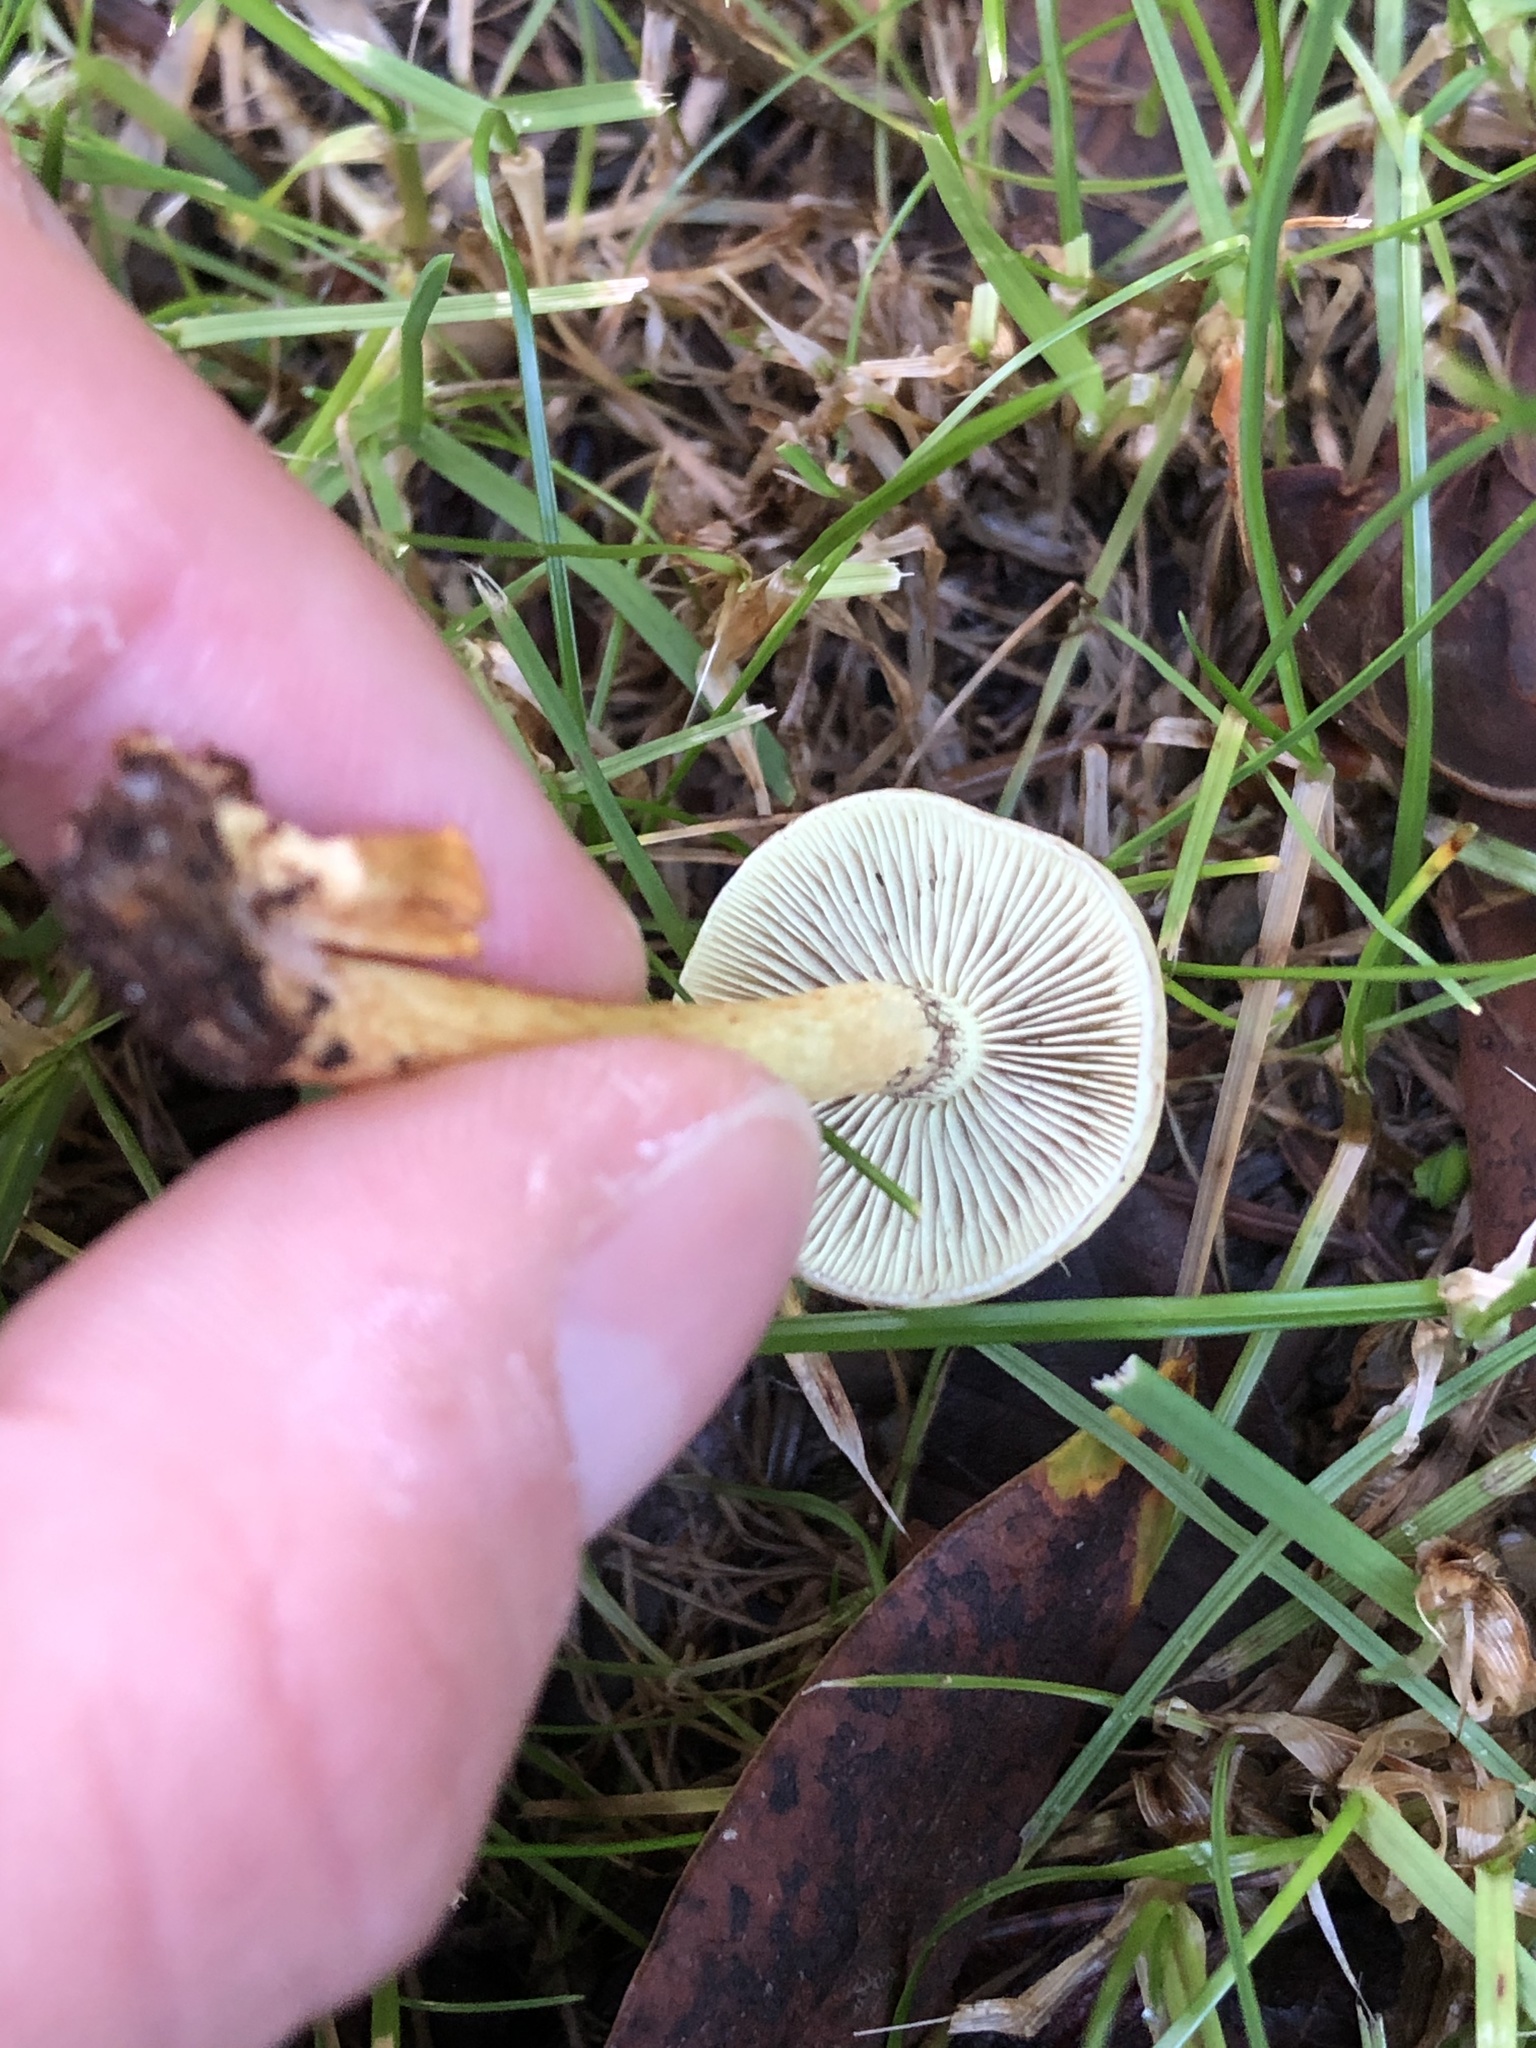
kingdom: Fungi
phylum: Basidiomycota
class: Agaricomycetes
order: Agaricales
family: Strophariaceae
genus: Hypholoma
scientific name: Hypholoma fasciculare
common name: Sulphur tuft
